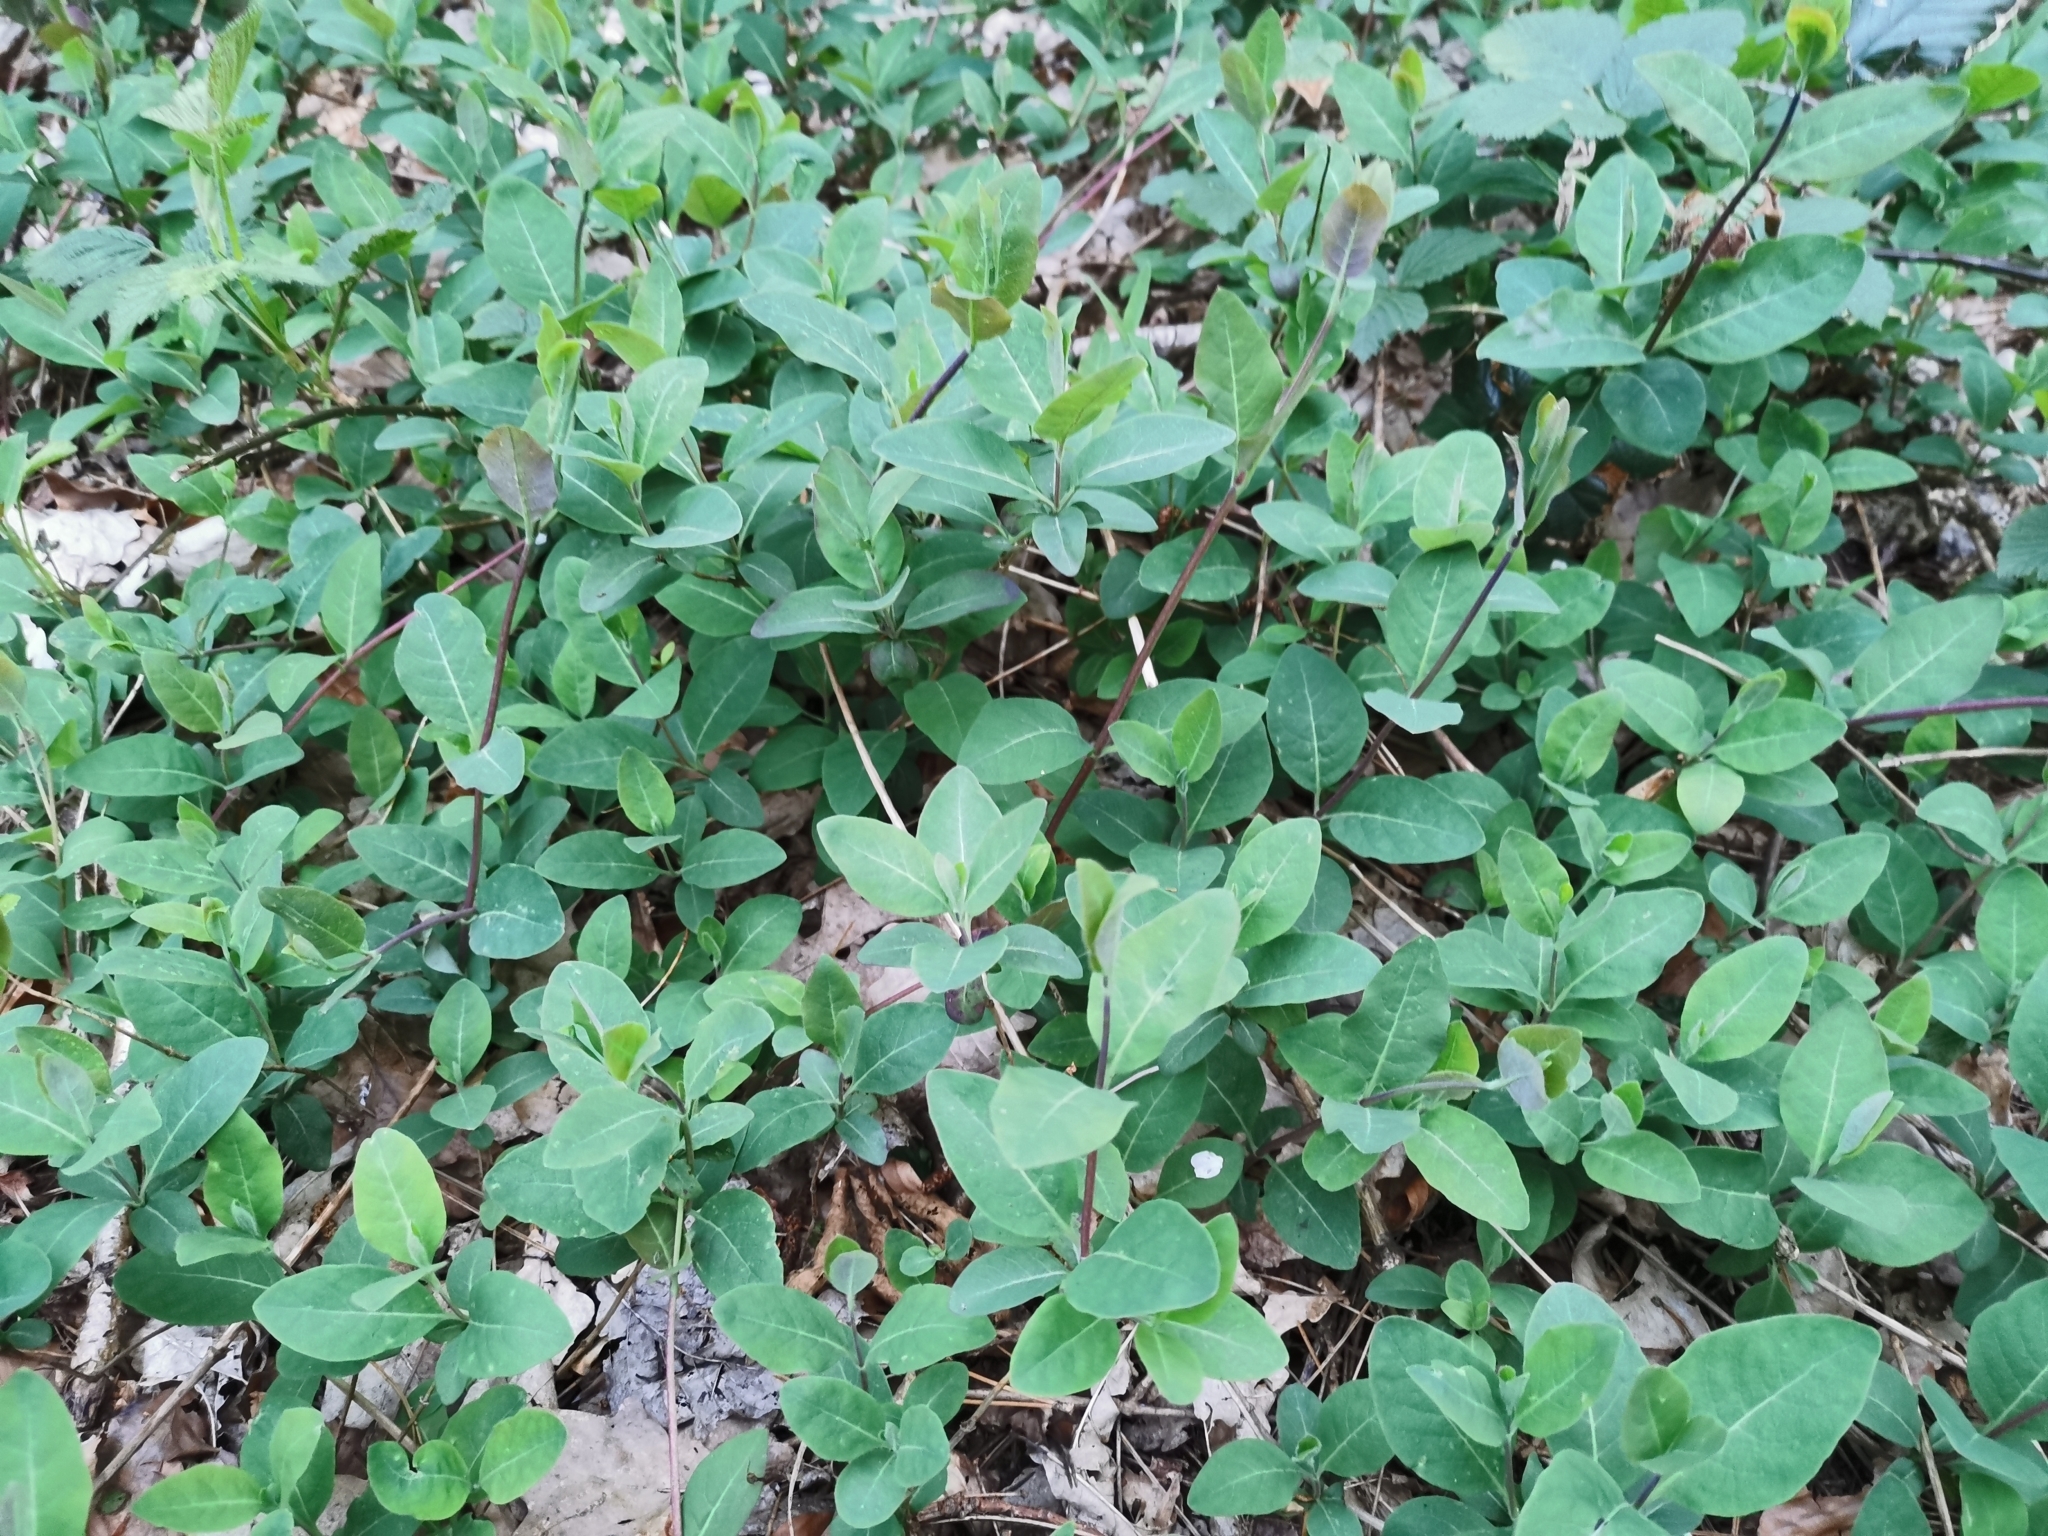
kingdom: Plantae
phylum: Tracheophyta
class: Magnoliopsida
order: Dipsacales
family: Caprifoliaceae
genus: Lonicera
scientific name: Lonicera periclymenum
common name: European honeysuckle
